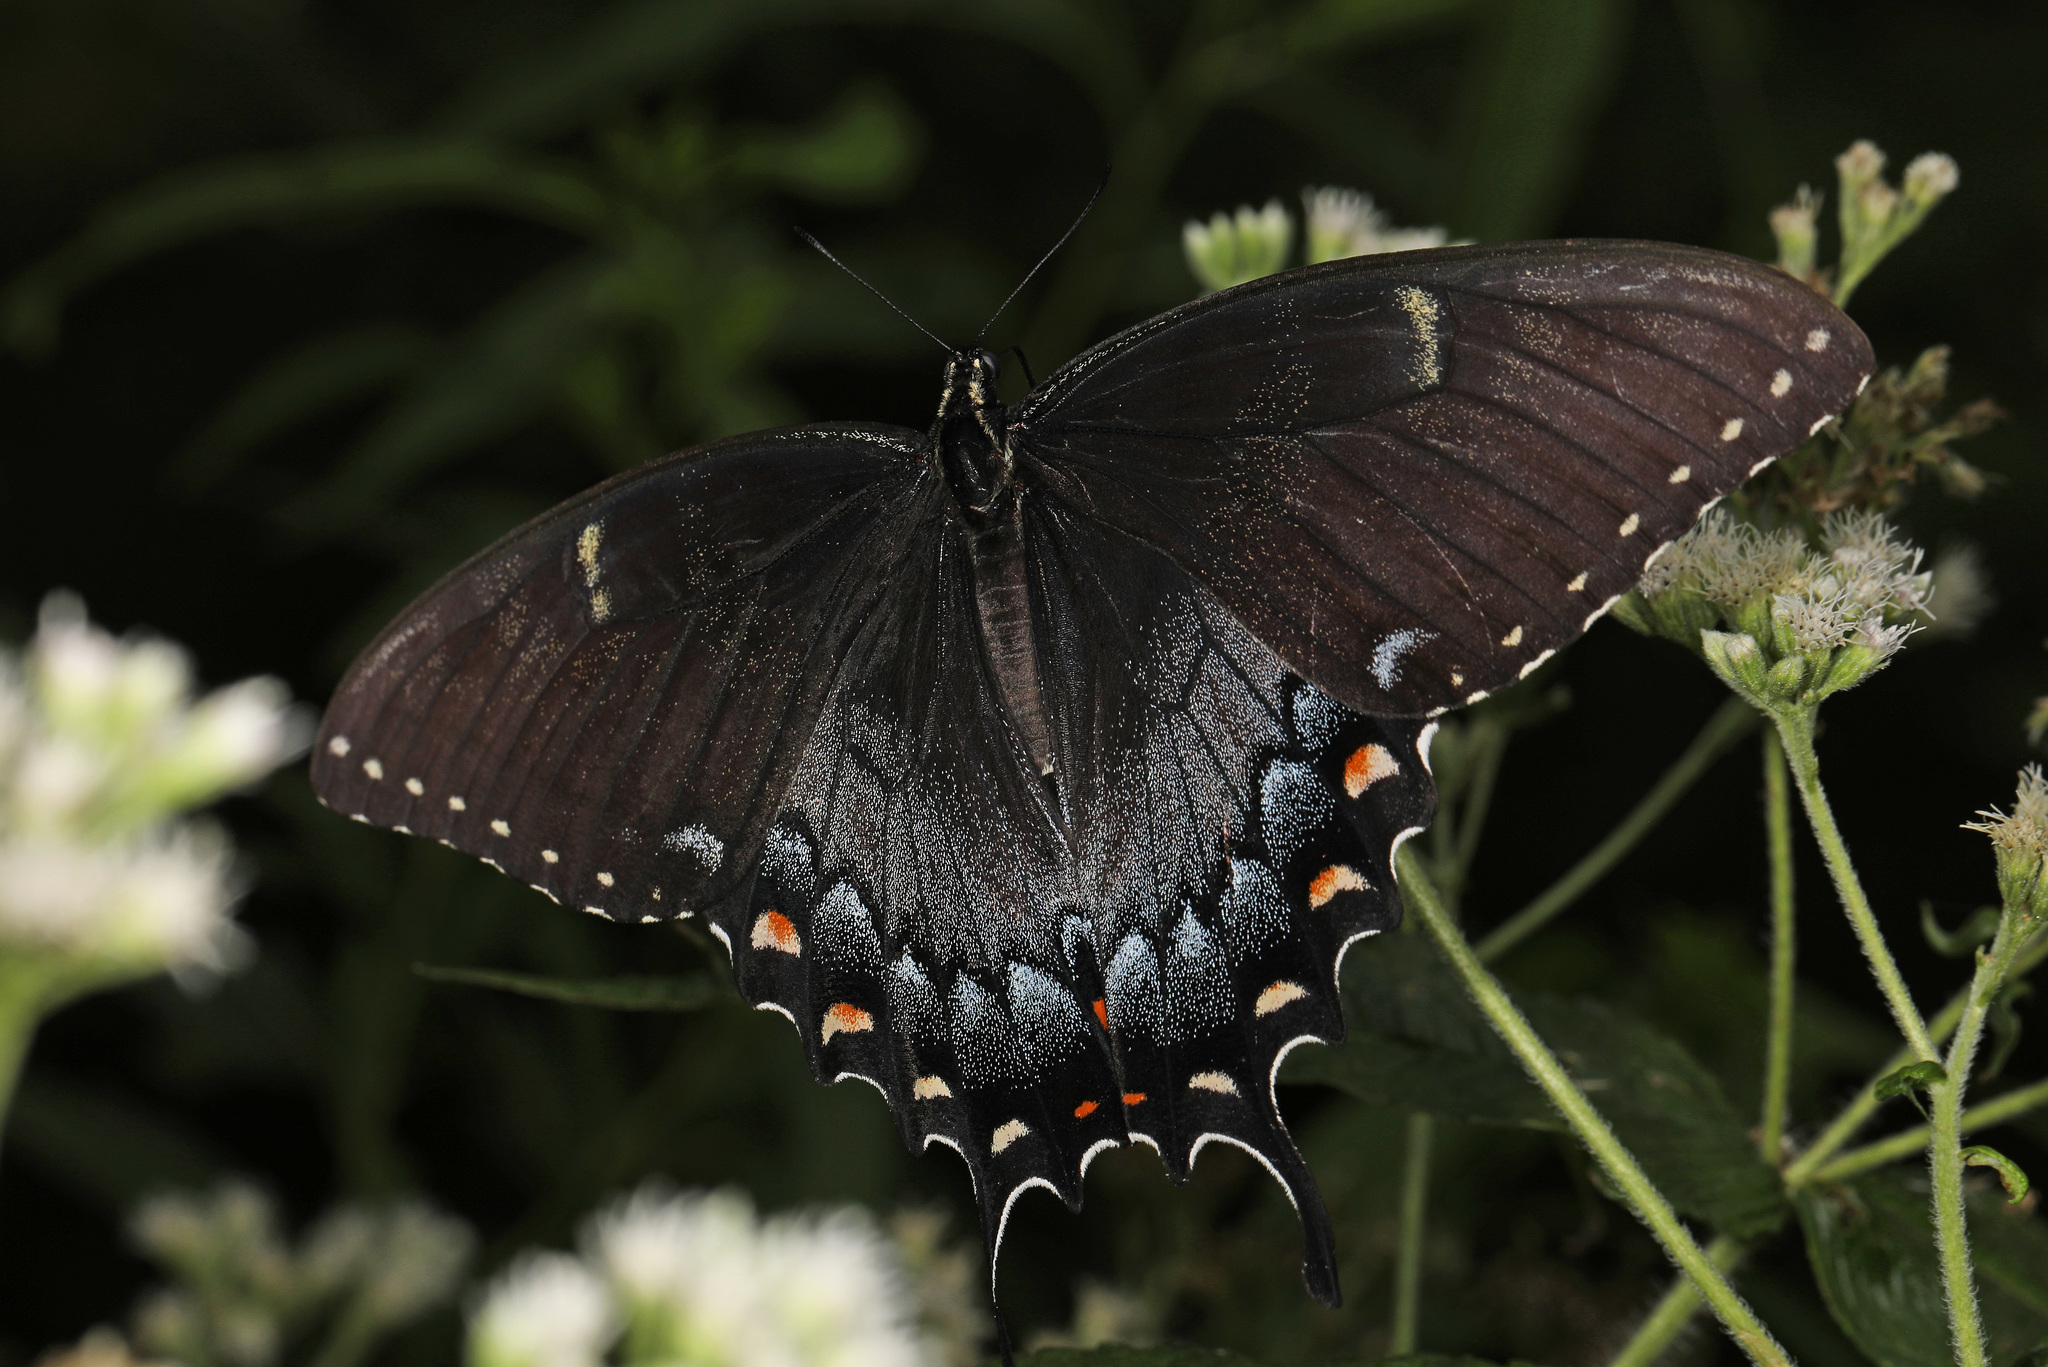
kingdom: Animalia
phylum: Arthropoda
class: Insecta
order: Lepidoptera
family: Papilionidae
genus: Papilio
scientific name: Papilio glaucus
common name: Tiger swallowtail
